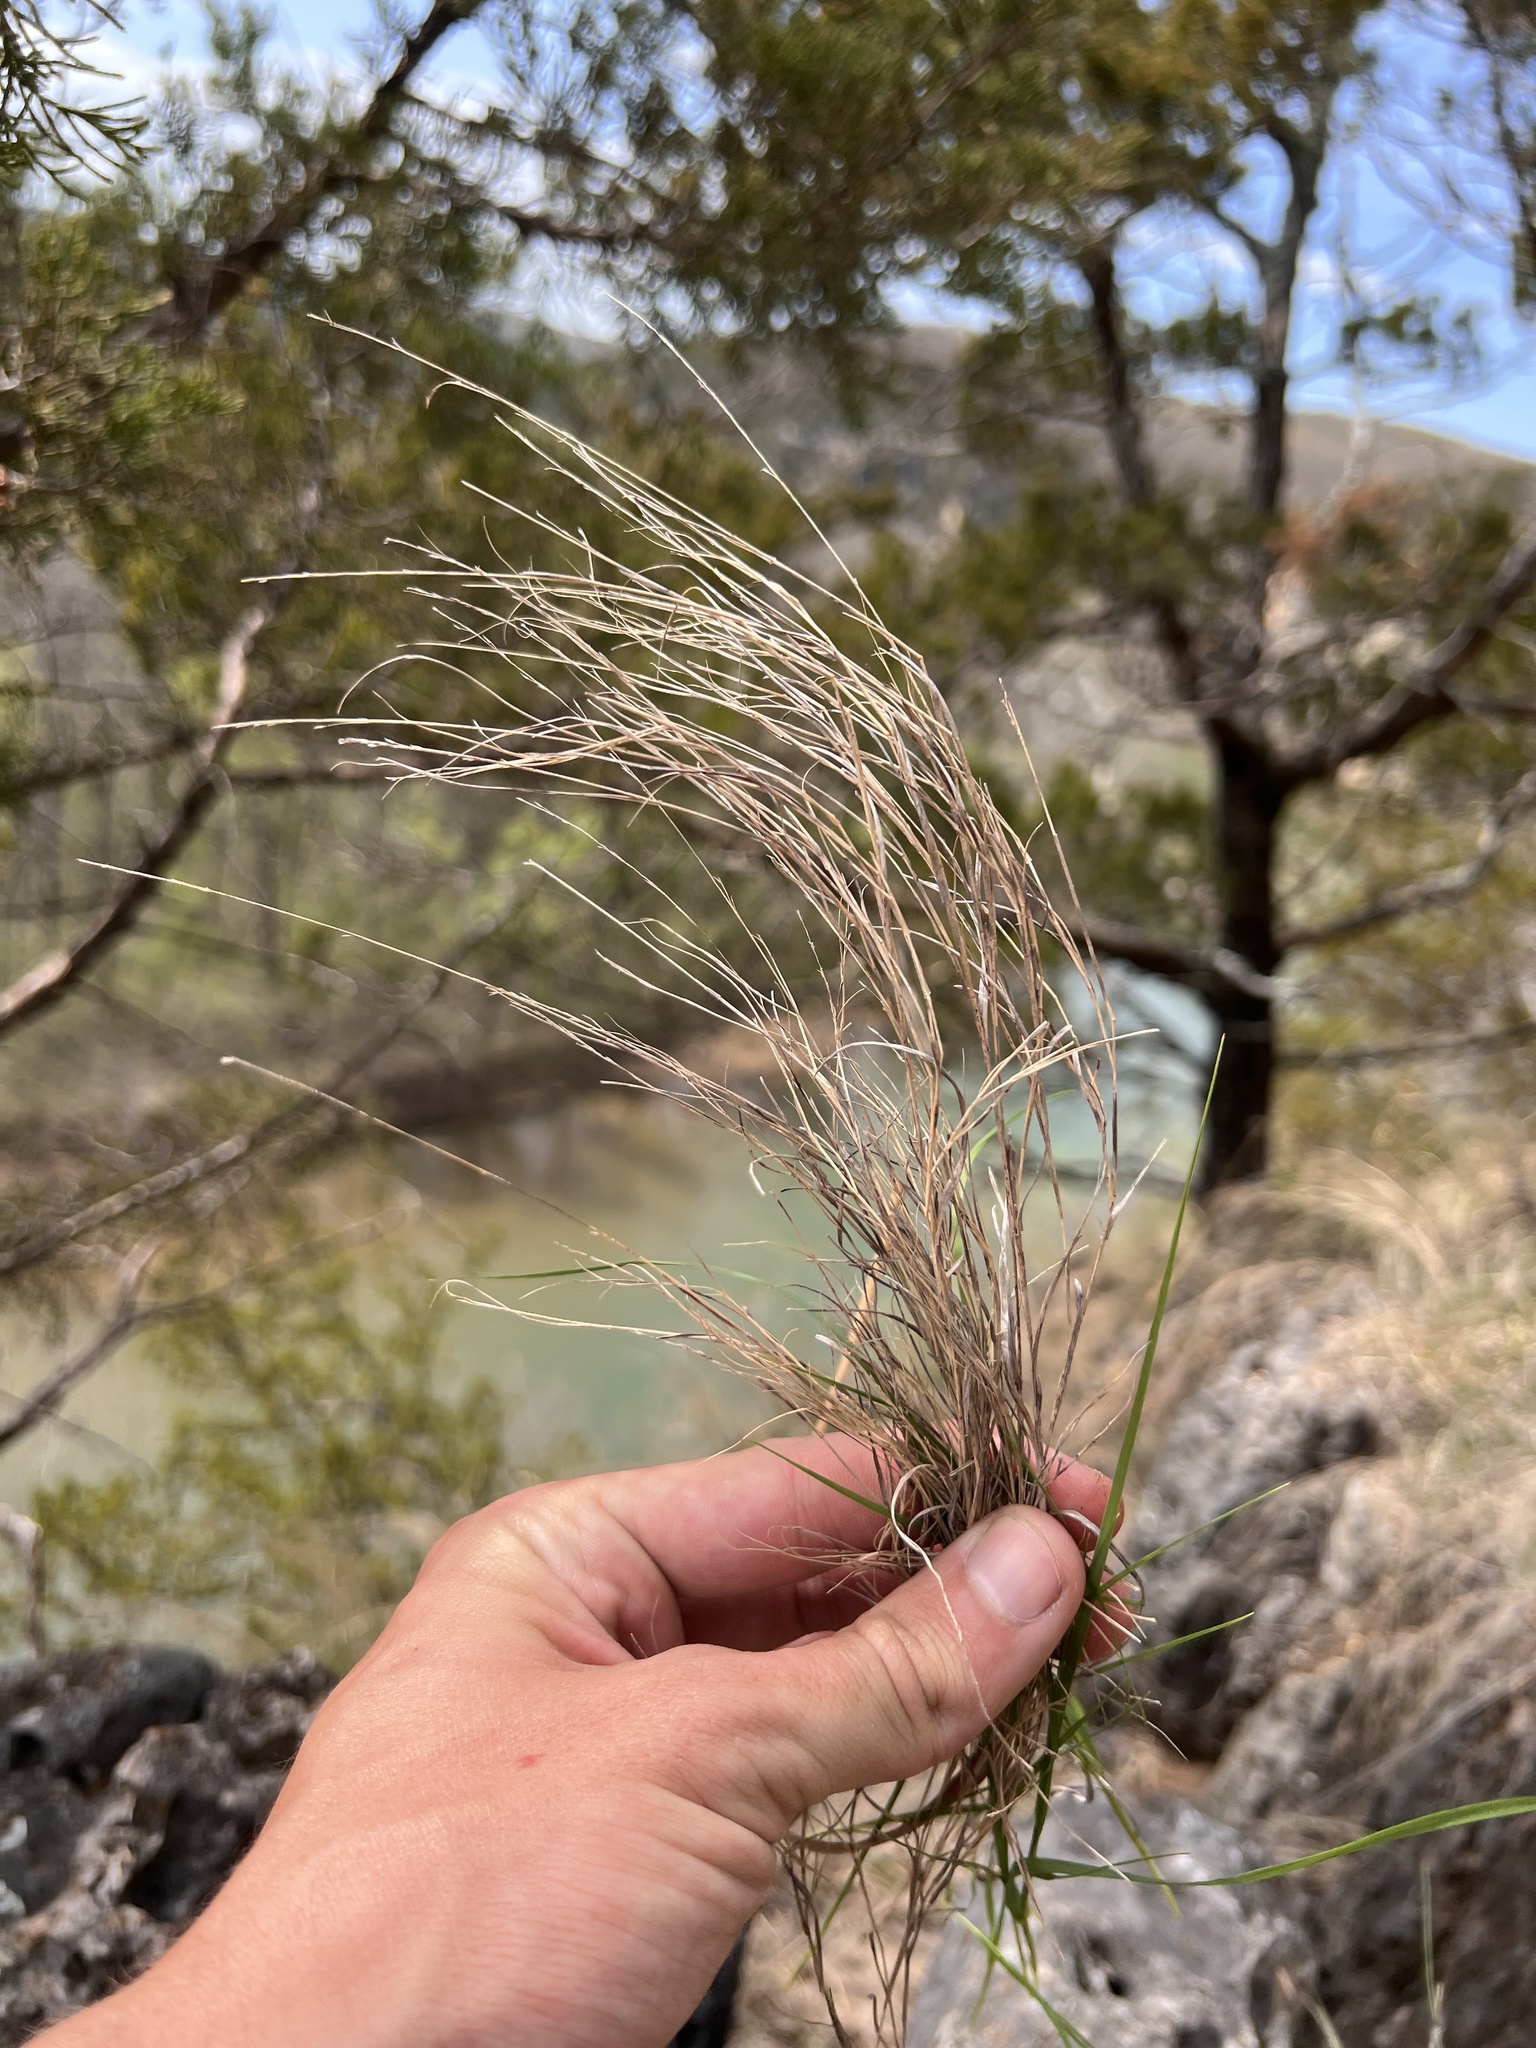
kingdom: Plantae
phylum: Tracheophyta
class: Liliopsida
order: Poales
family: Poaceae
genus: Muhlenbergia
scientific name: Muhlenbergia cuspidata
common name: Plains muhly
